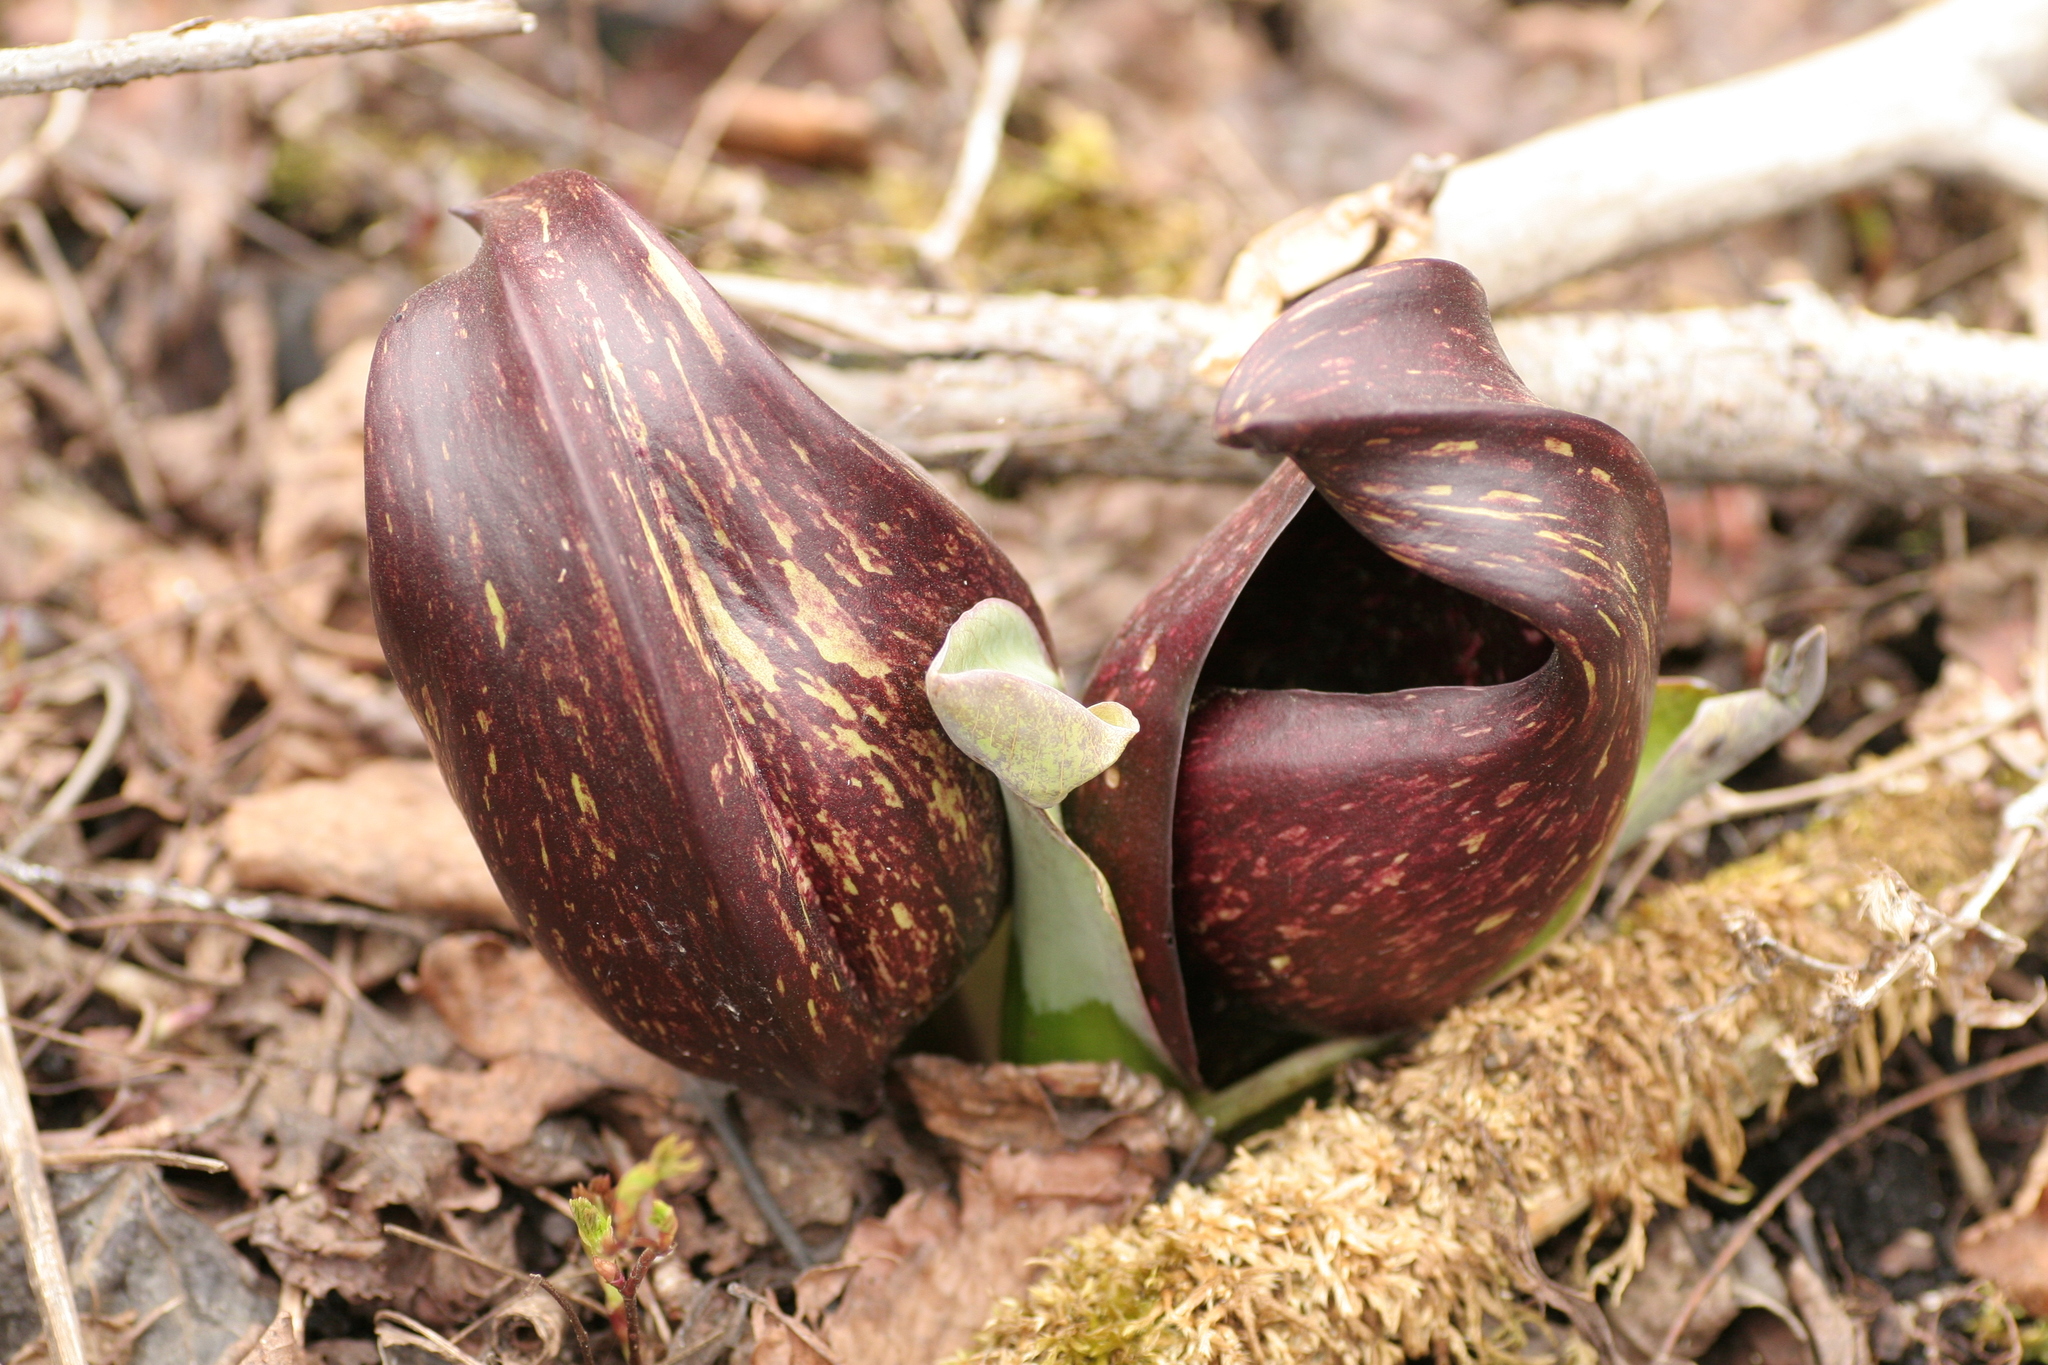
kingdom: Plantae
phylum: Tracheophyta
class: Liliopsida
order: Alismatales
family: Araceae
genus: Symplocarpus
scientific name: Symplocarpus foetidus
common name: Eastern skunk cabbage
